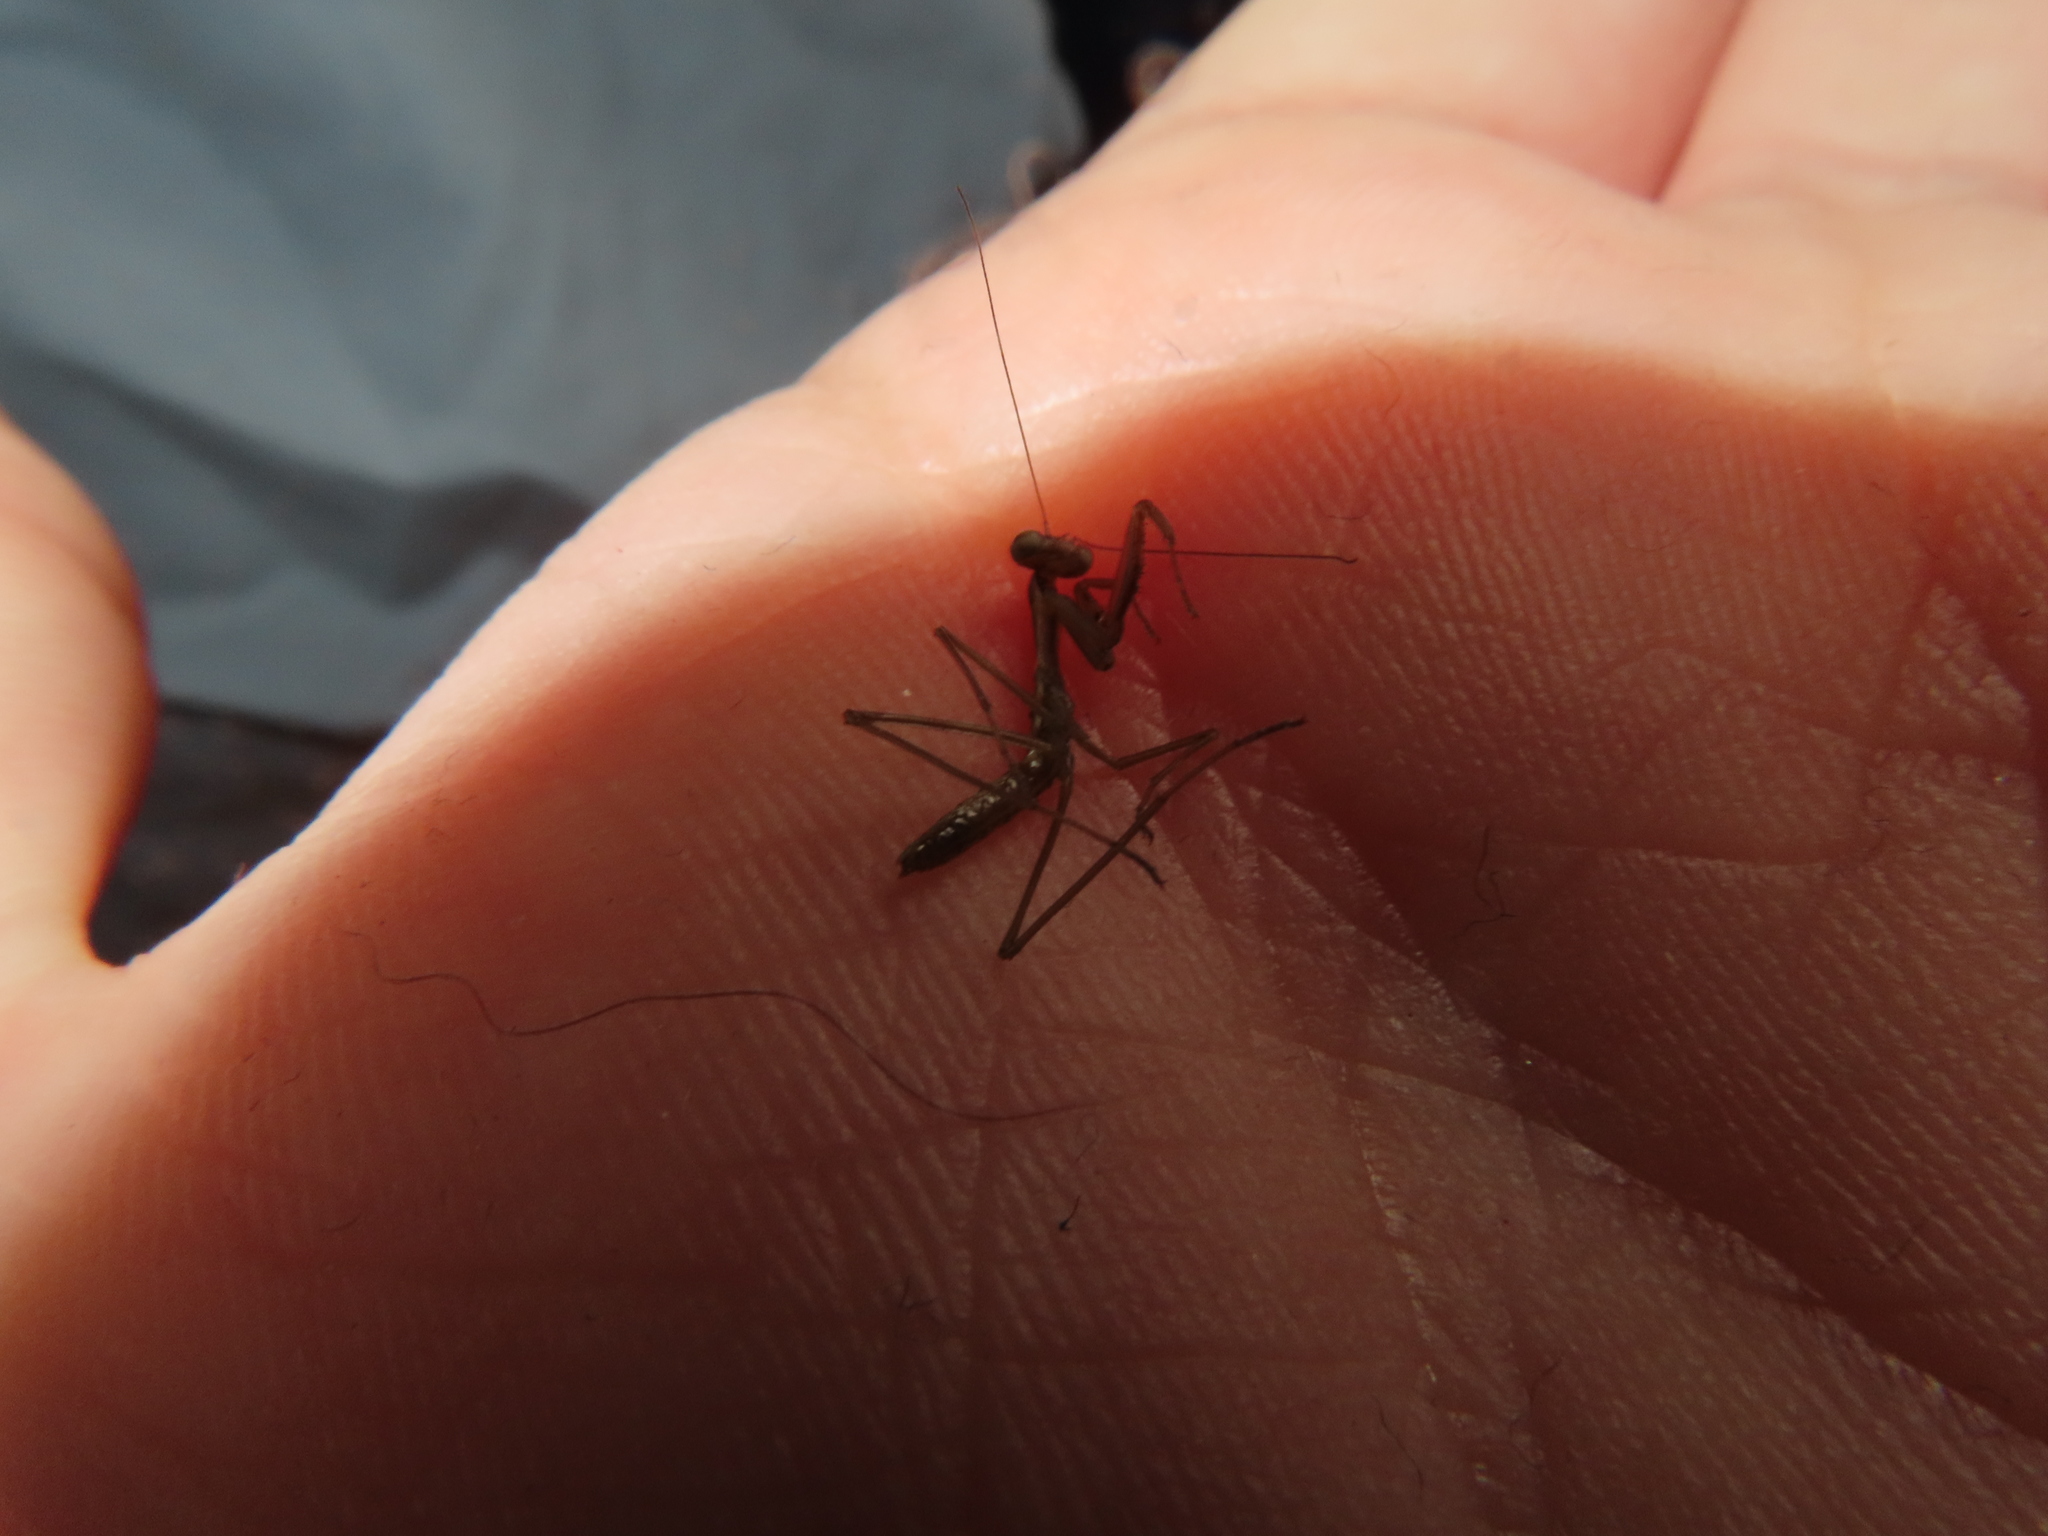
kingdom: Animalia
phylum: Arthropoda
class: Insecta
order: Mantodea
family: Mantidae
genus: Tenodera
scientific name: Tenodera sinensis
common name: Chinese mantis
